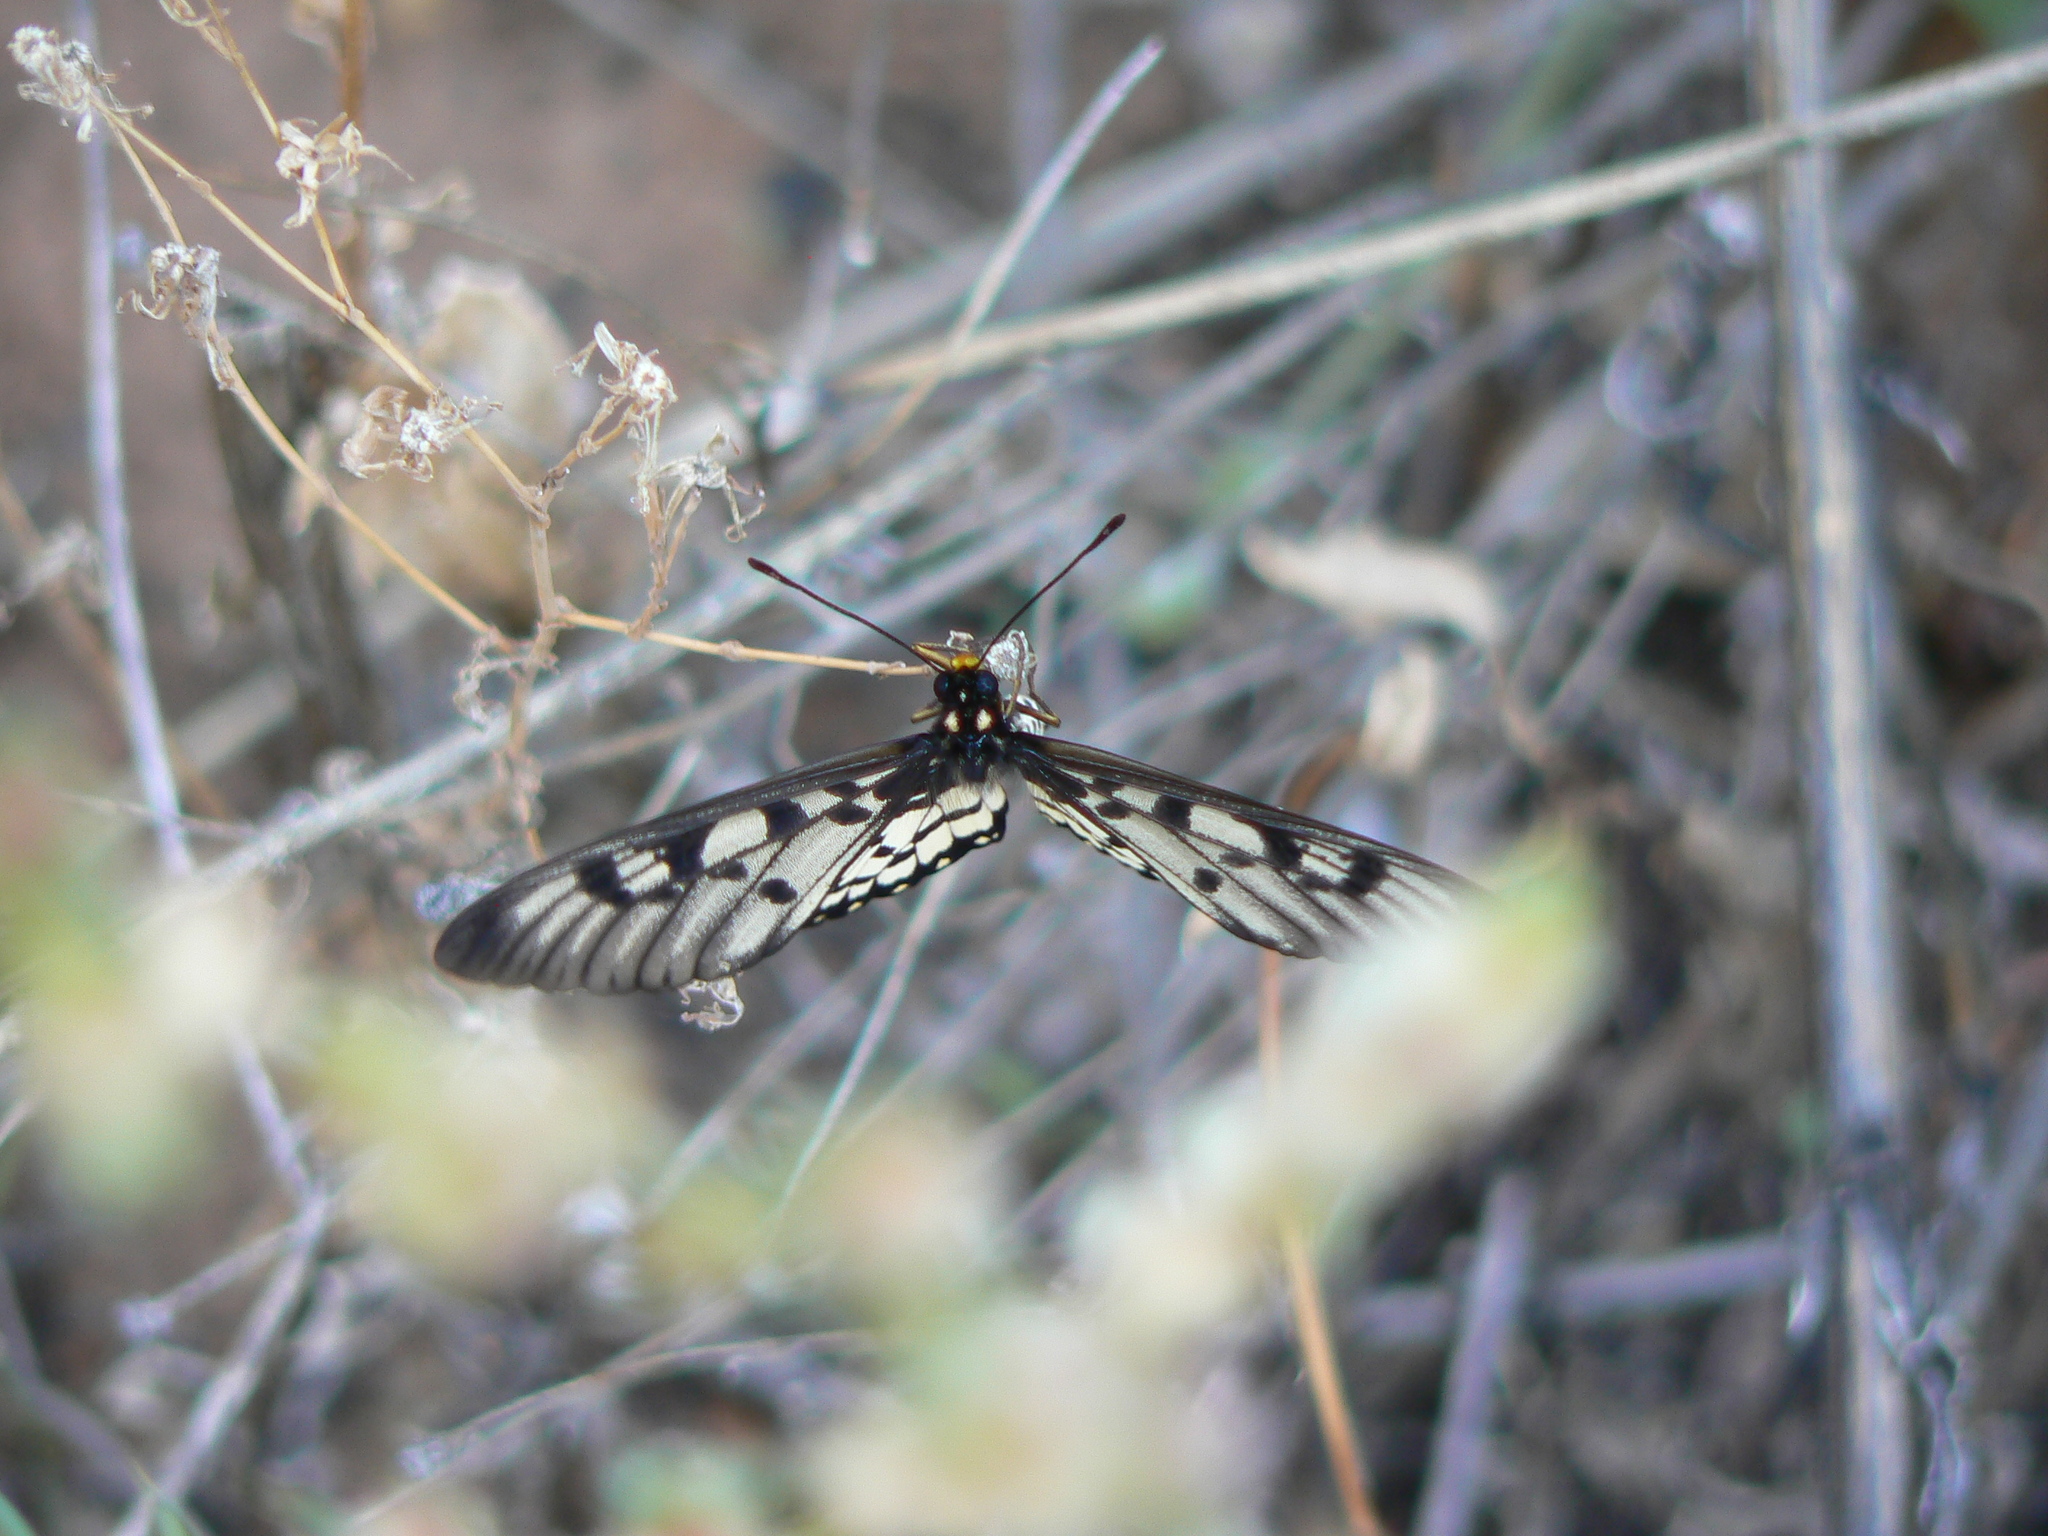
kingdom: Animalia
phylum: Arthropoda
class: Insecta
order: Lepidoptera
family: Nymphalidae
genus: Acraea
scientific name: Acraea andromacha
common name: Glasswing
